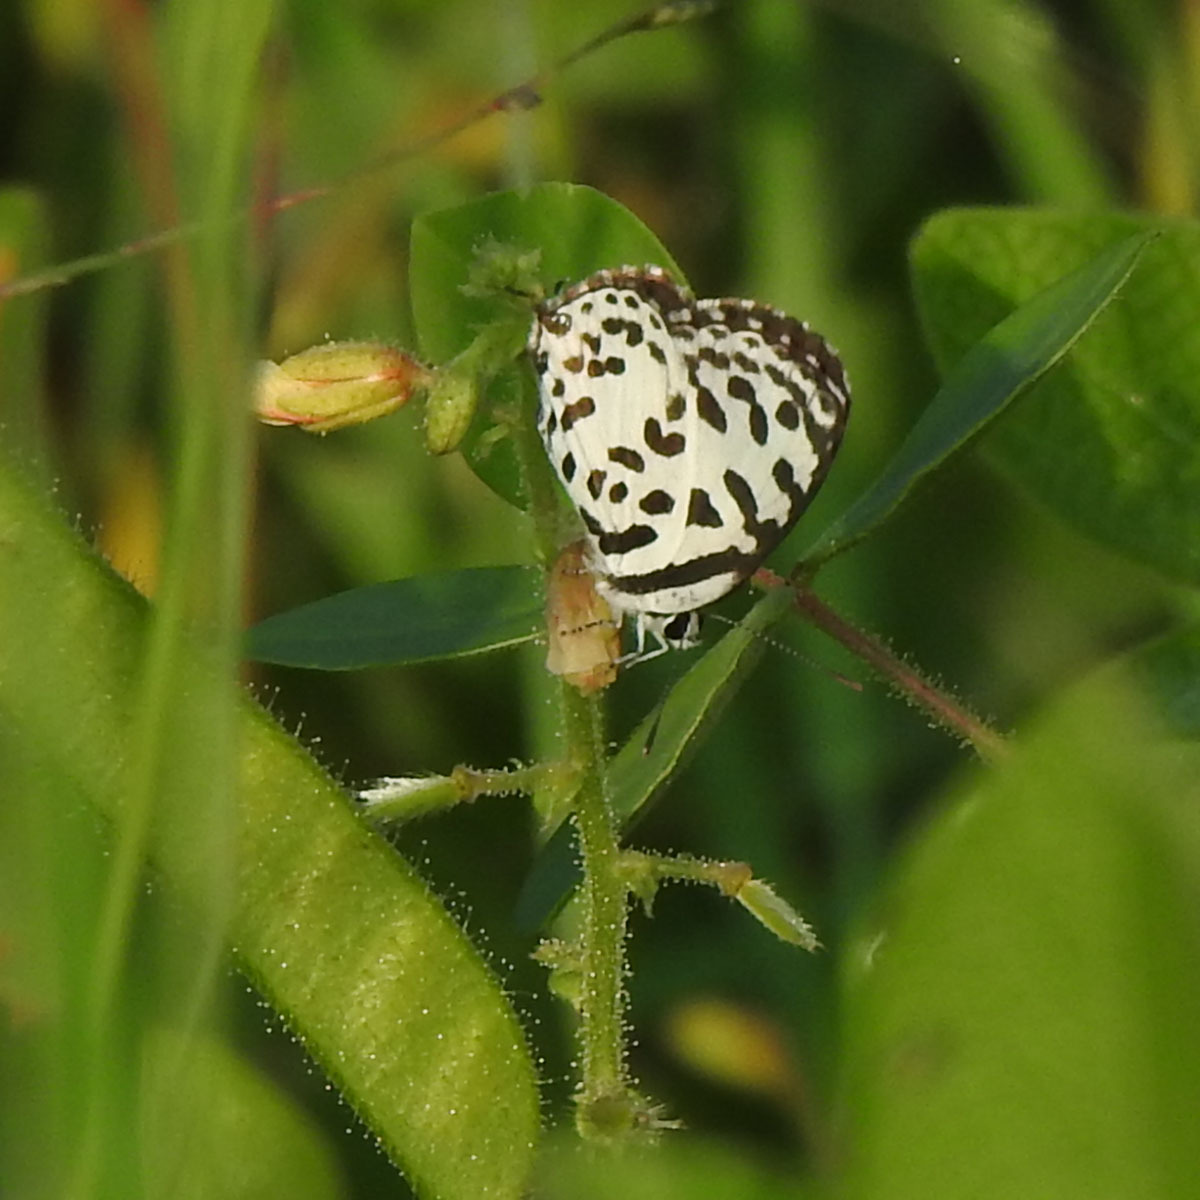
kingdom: Animalia
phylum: Arthropoda
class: Insecta
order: Lepidoptera
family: Lycaenidae
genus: Castalius
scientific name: Castalius rosimon
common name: Common pierrot
